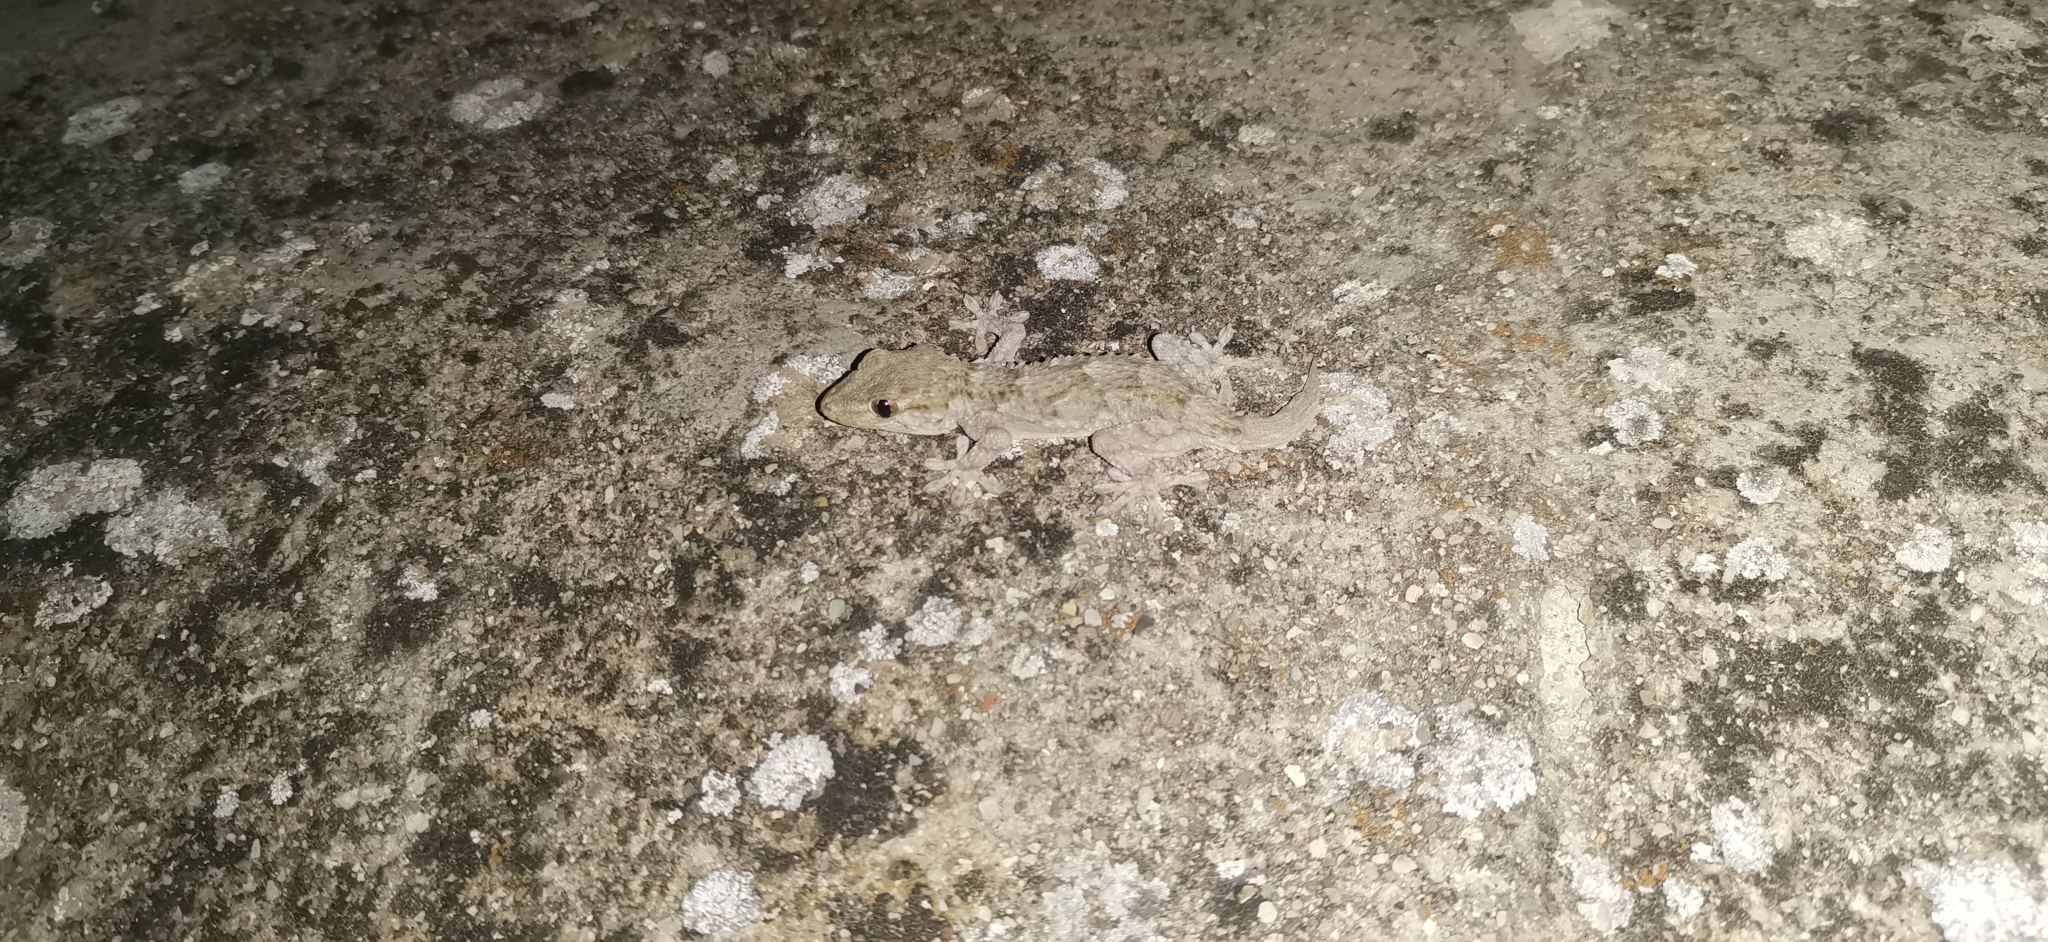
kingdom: Animalia
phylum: Chordata
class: Squamata
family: Phyllodactylidae
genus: Tarentola
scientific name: Tarentola mauritanica
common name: Moorish gecko
